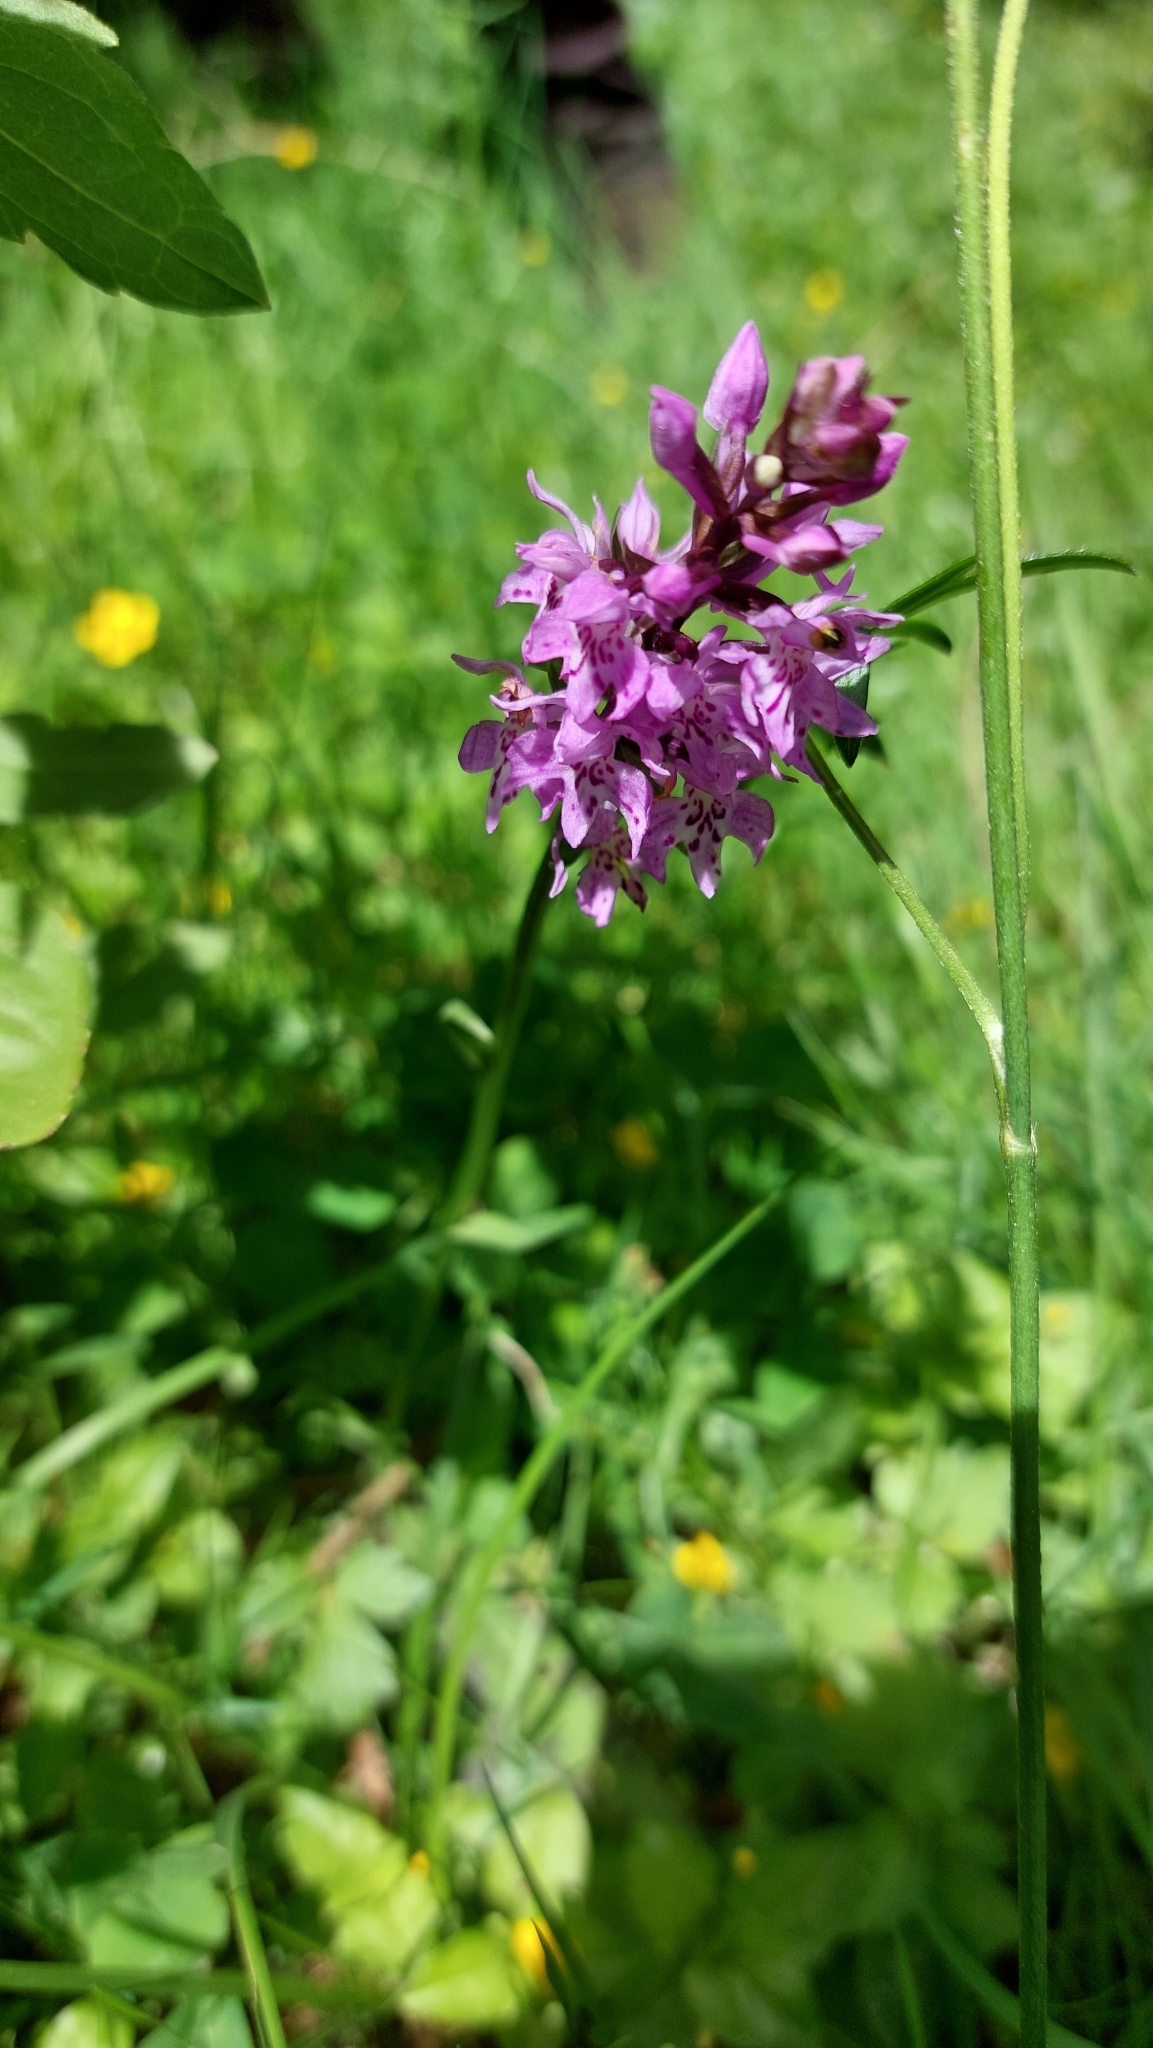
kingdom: Plantae
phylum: Tracheophyta
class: Liliopsida
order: Asparagales
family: Orchidaceae
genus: Dactylorhiza
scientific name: Dactylorhiza maculata
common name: Heath spotted-orchid
